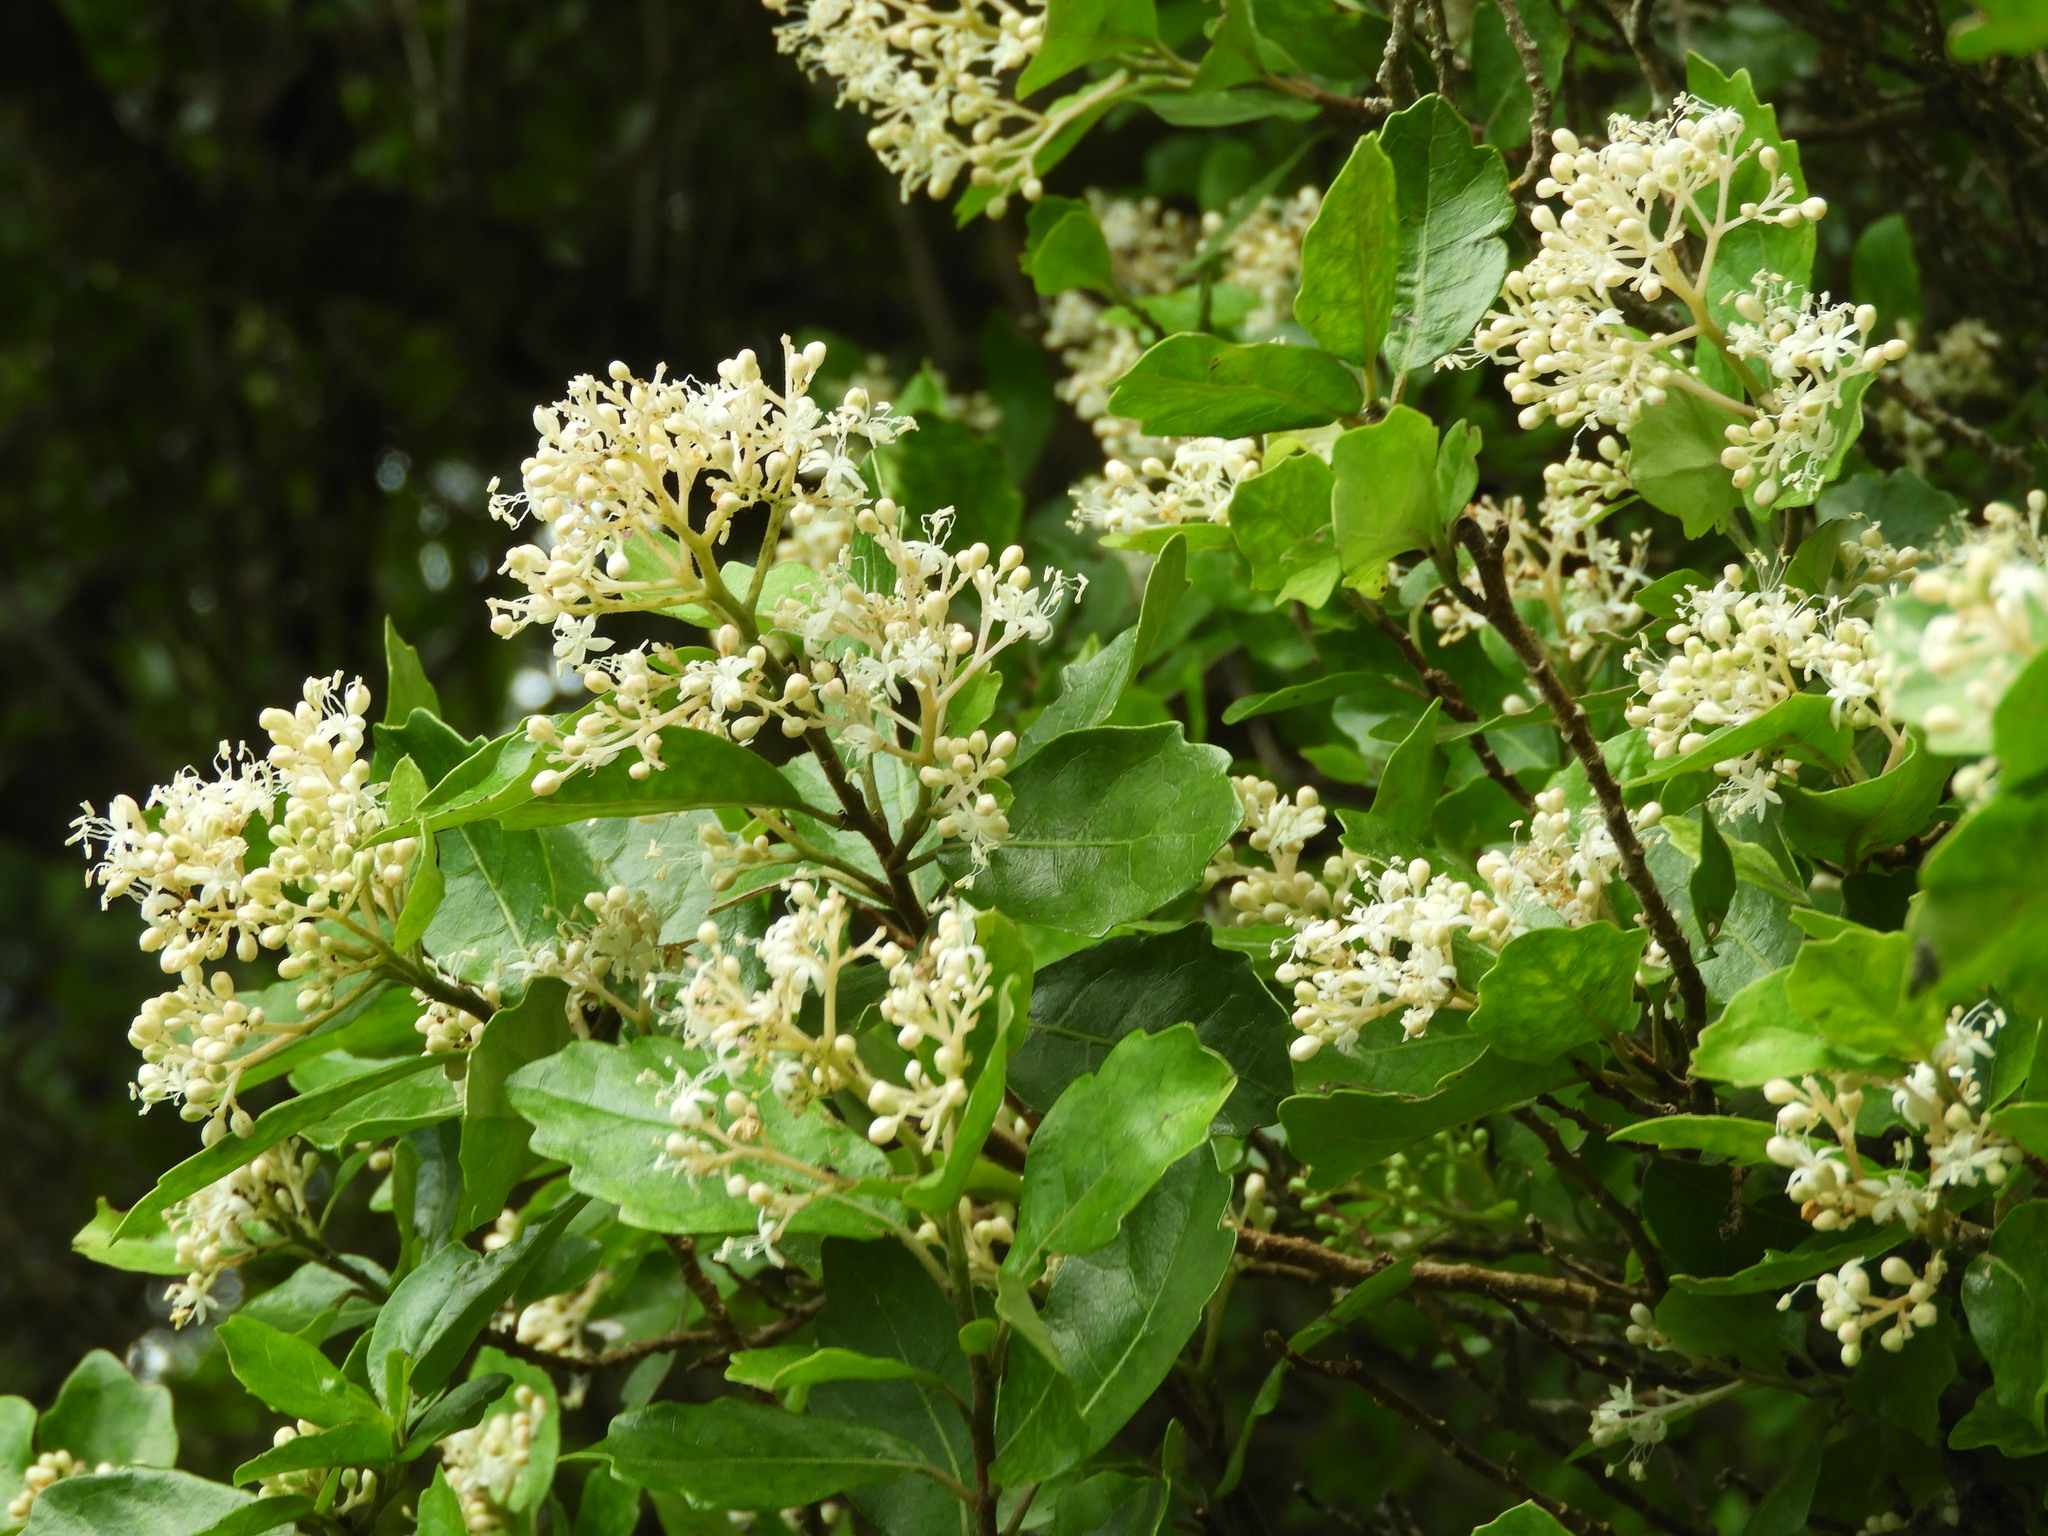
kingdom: Plantae
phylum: Tracheophyta
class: Magnoliopsida
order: Apiales
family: Pennantiaceae
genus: Pennantia
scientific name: Pennantia corymbosa
